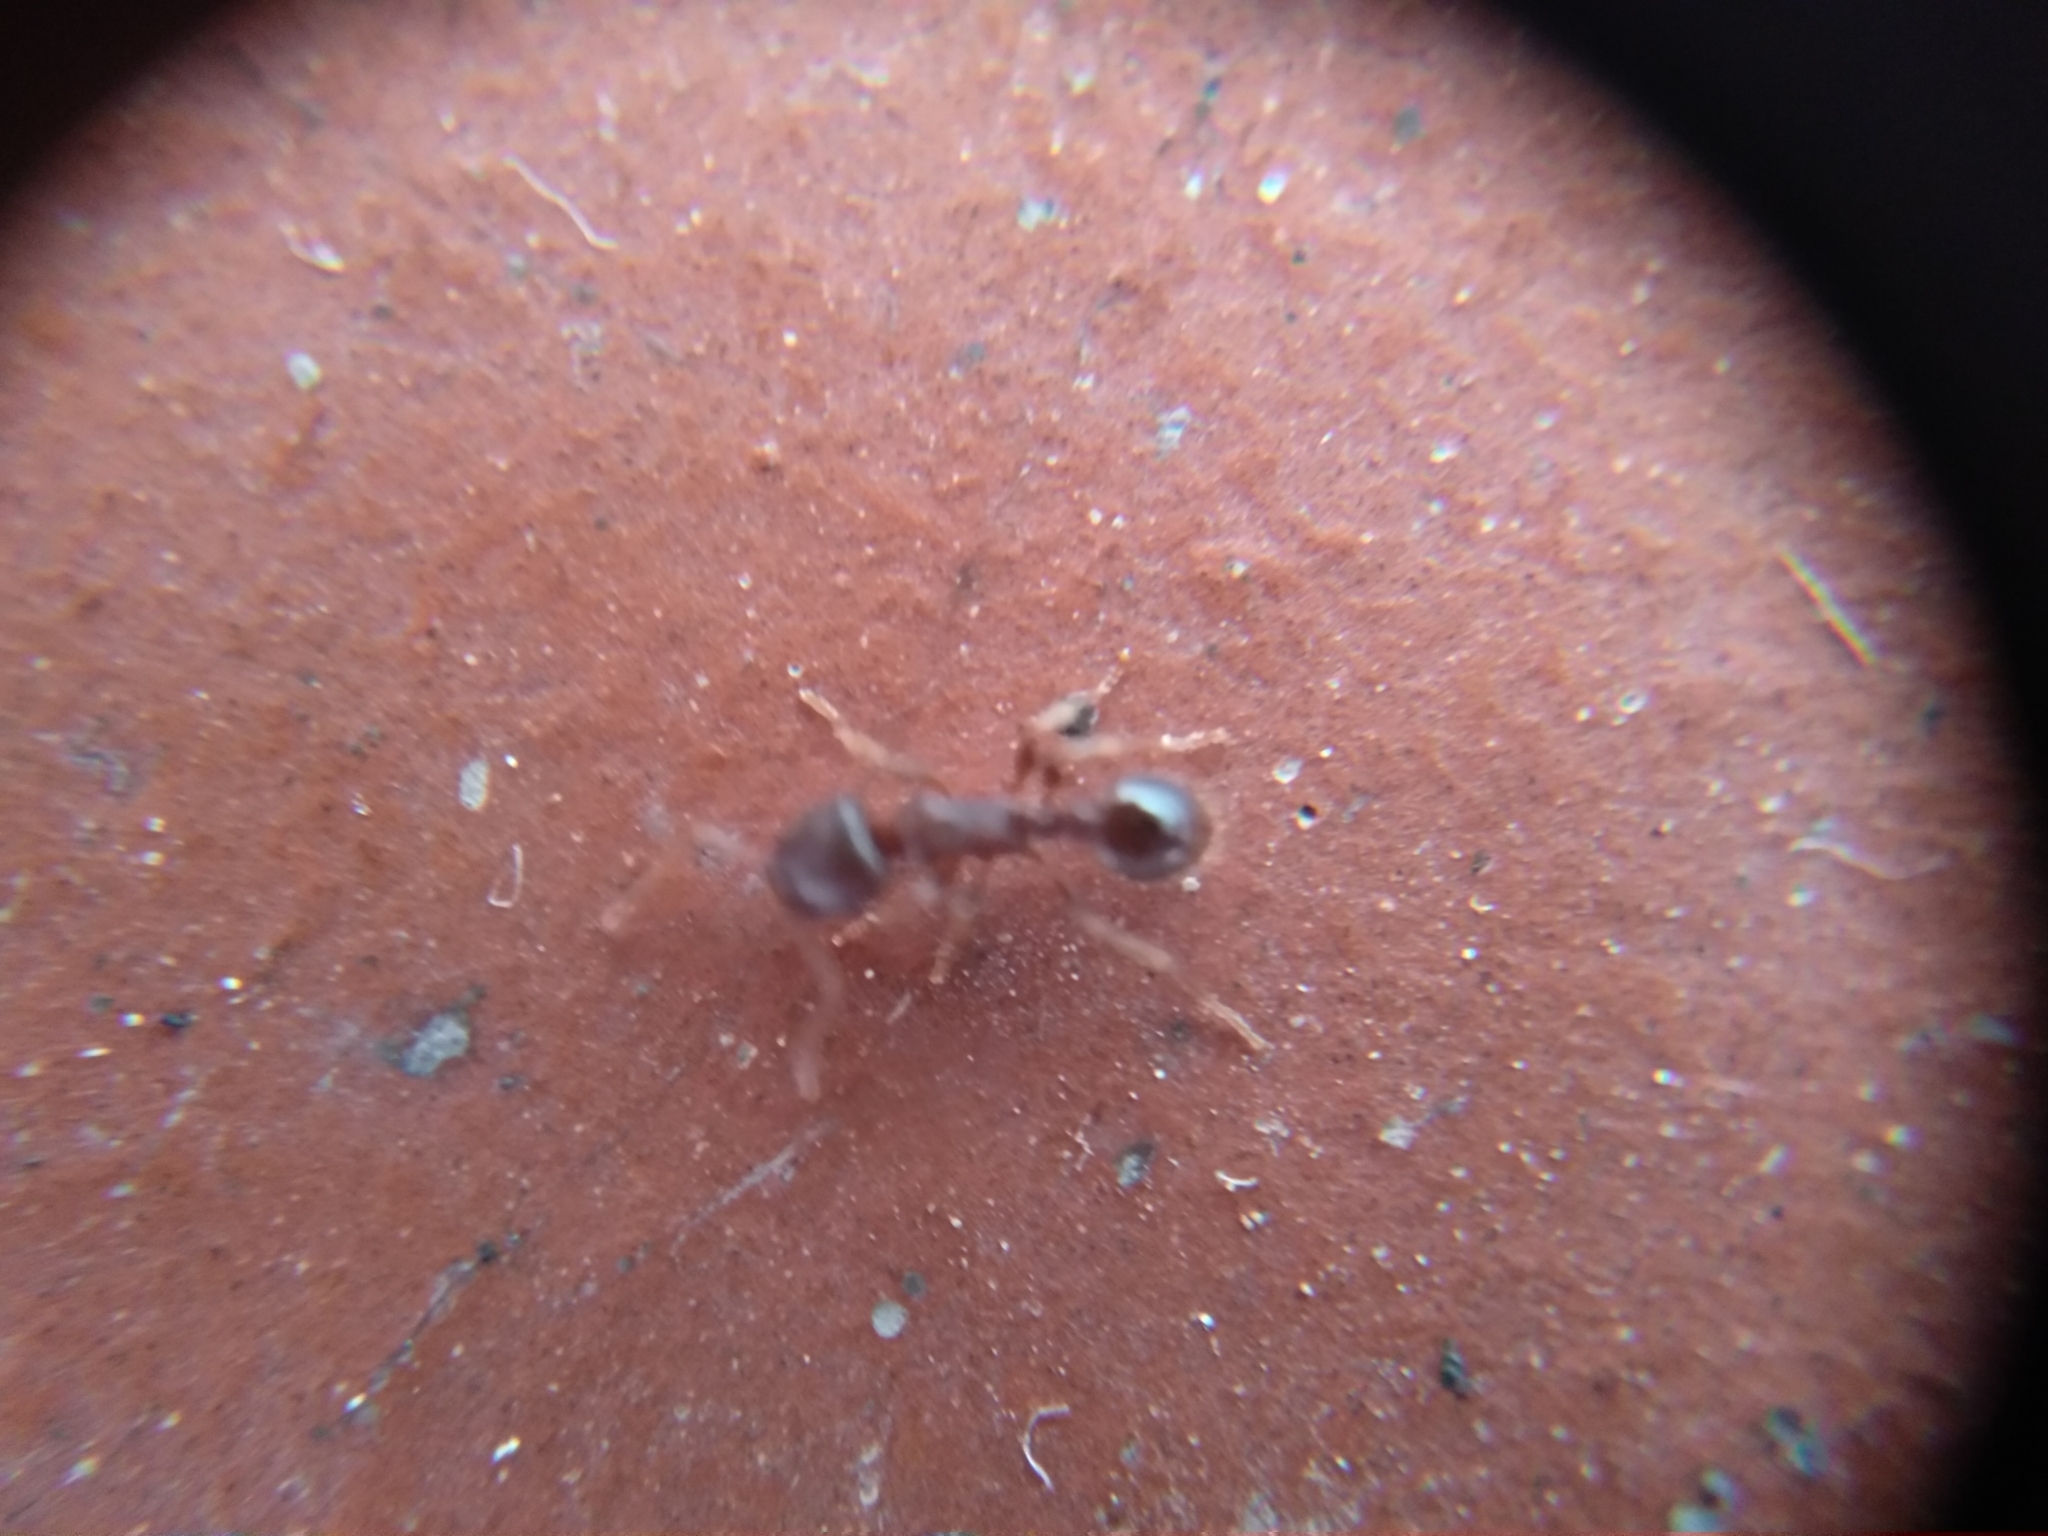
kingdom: Animalia
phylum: Arthropoda
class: Insecta
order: Hymenoptera
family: Formicidae
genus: Tetramorium
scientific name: Tetramorium immigrans
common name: Pavement ant
